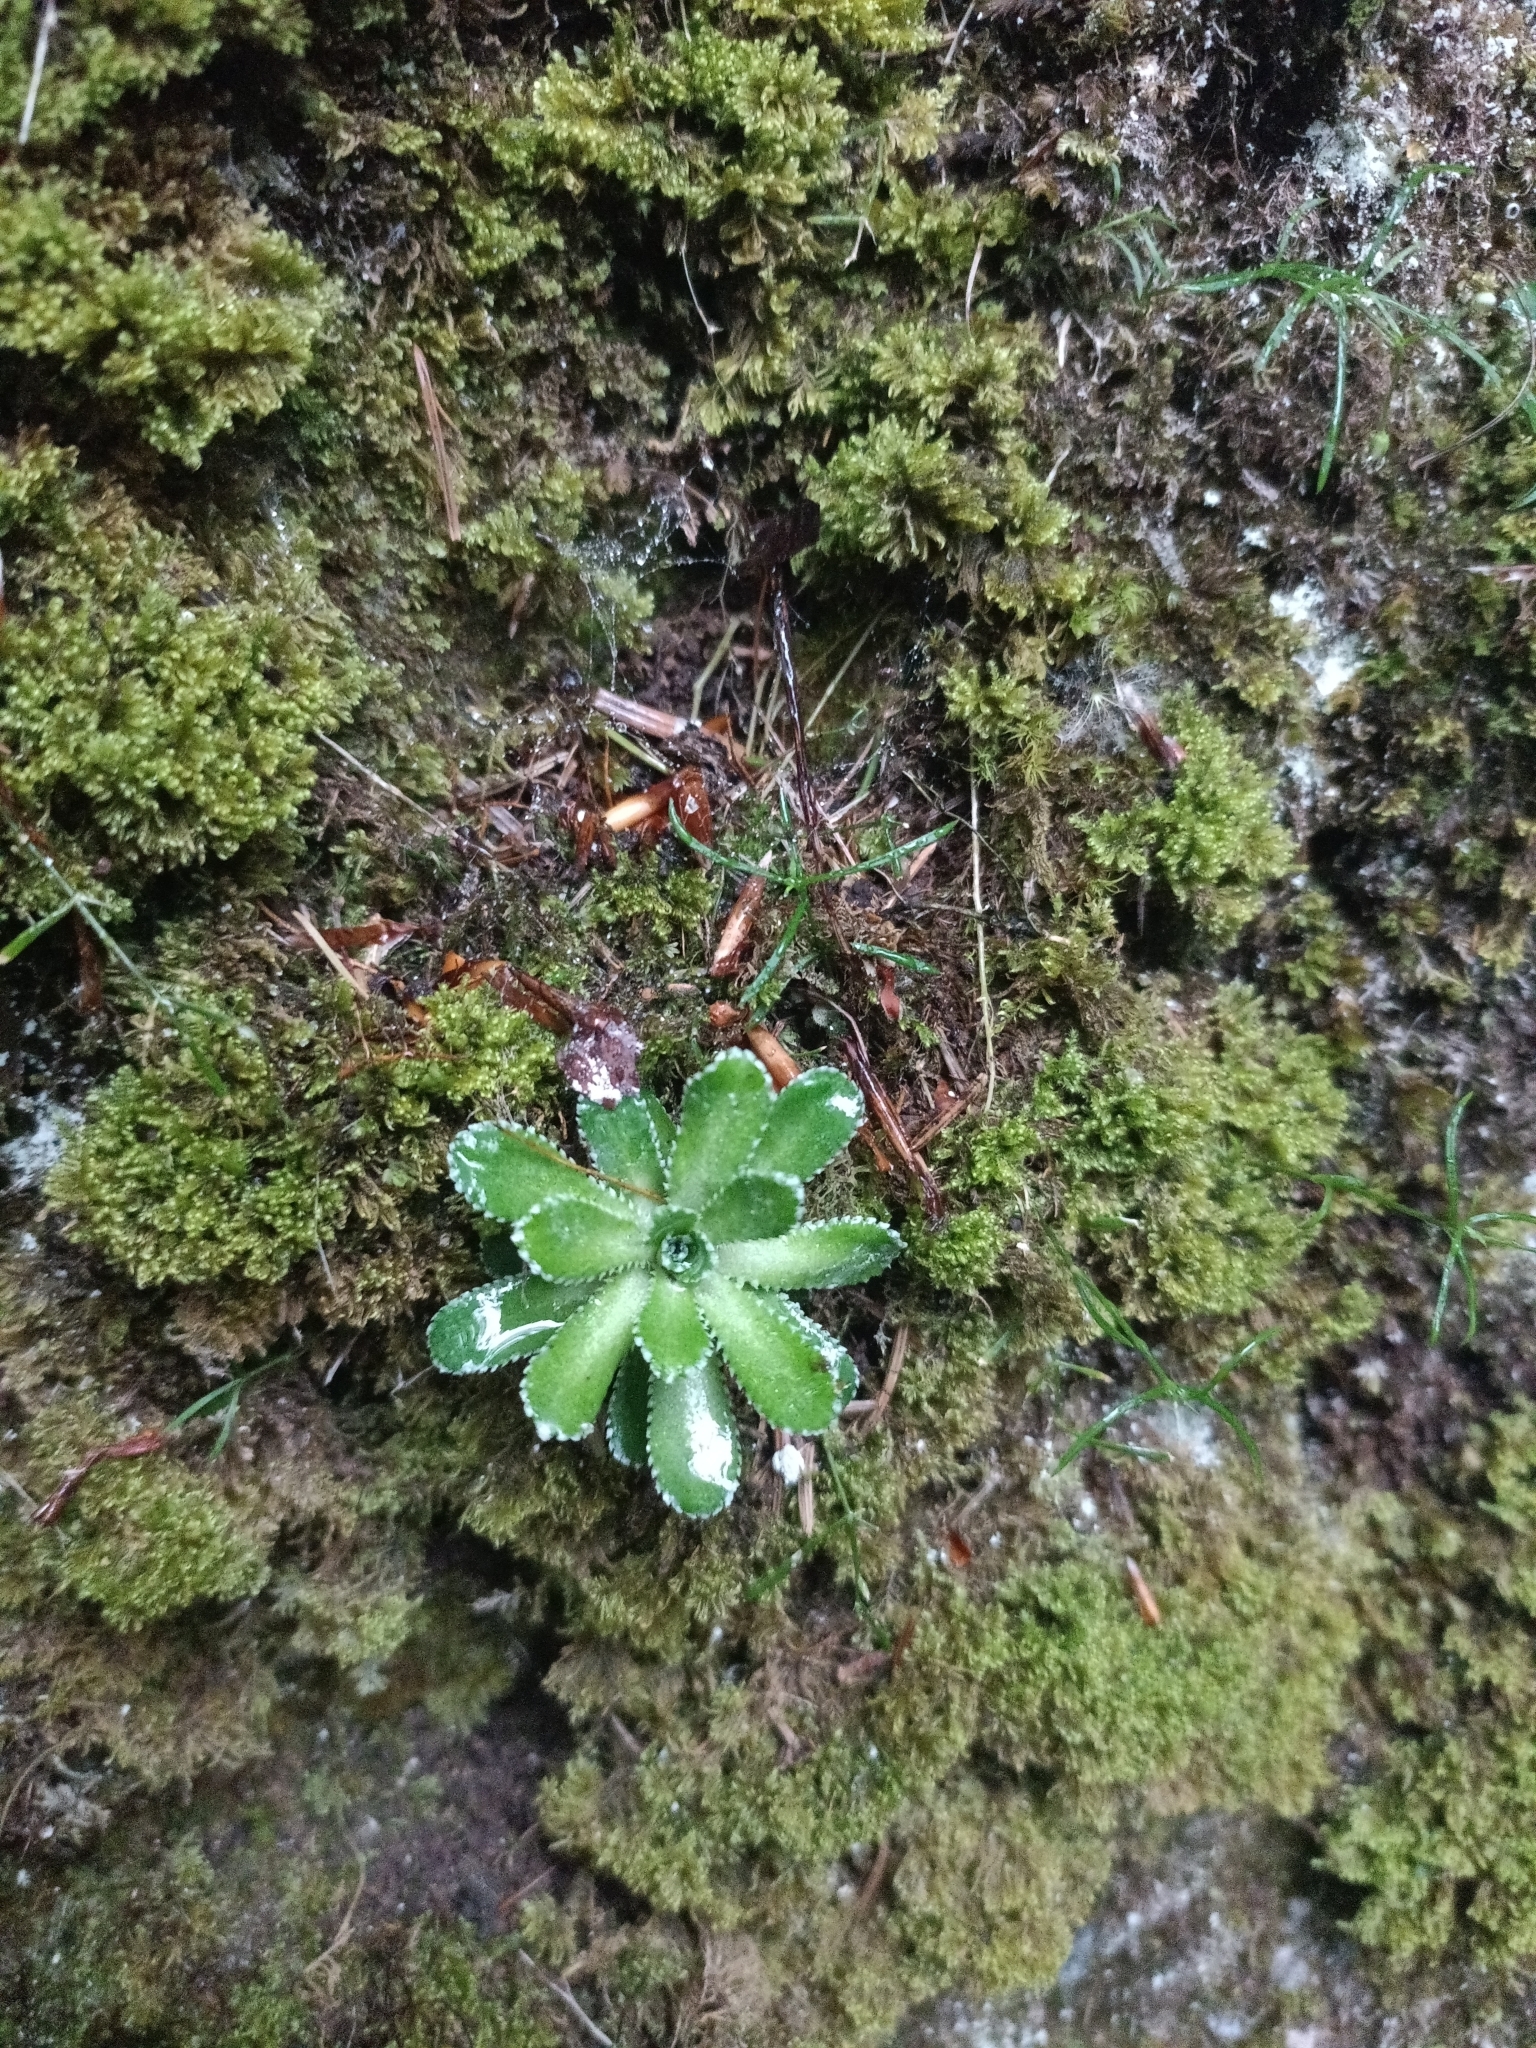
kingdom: Plantae
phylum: Tracheophyta
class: Magnoliopsida
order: Saxifragales
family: Saxifragaceae
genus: Saxifraga
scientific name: Saxifraga paniculata
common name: Livelong saxifrage
